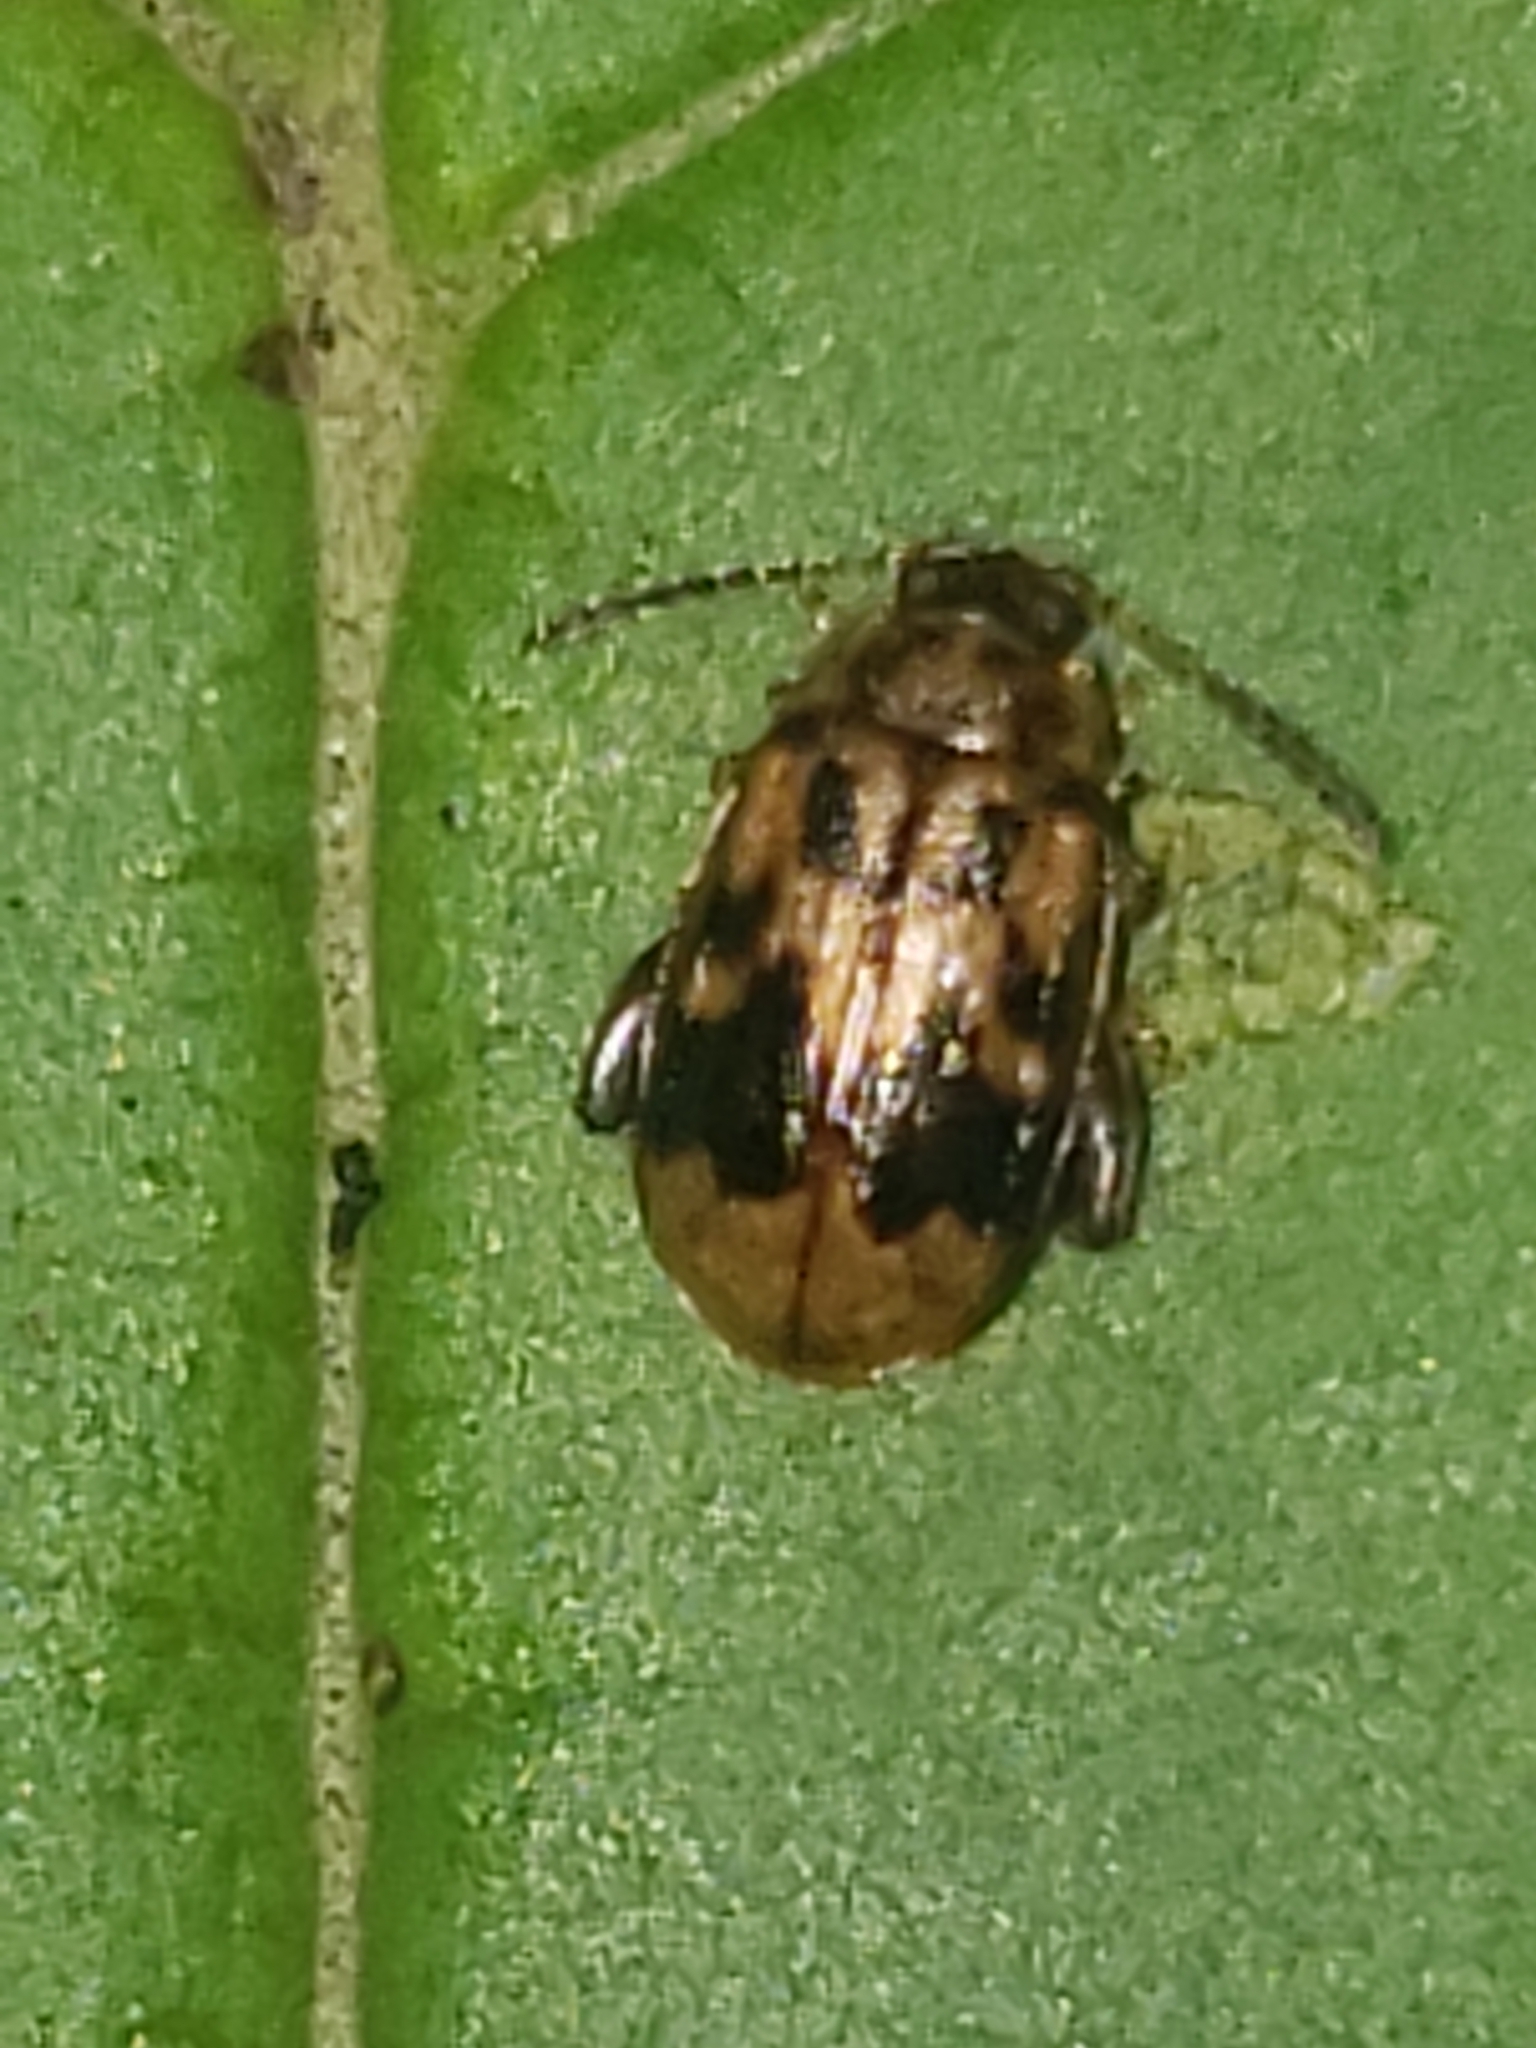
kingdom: Animalia
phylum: Arthropoda
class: Insecta
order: Coleoptera
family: Chrysomelidae
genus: Capraita
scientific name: Capraita sexmaculata
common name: Charlie brown flea beetle
